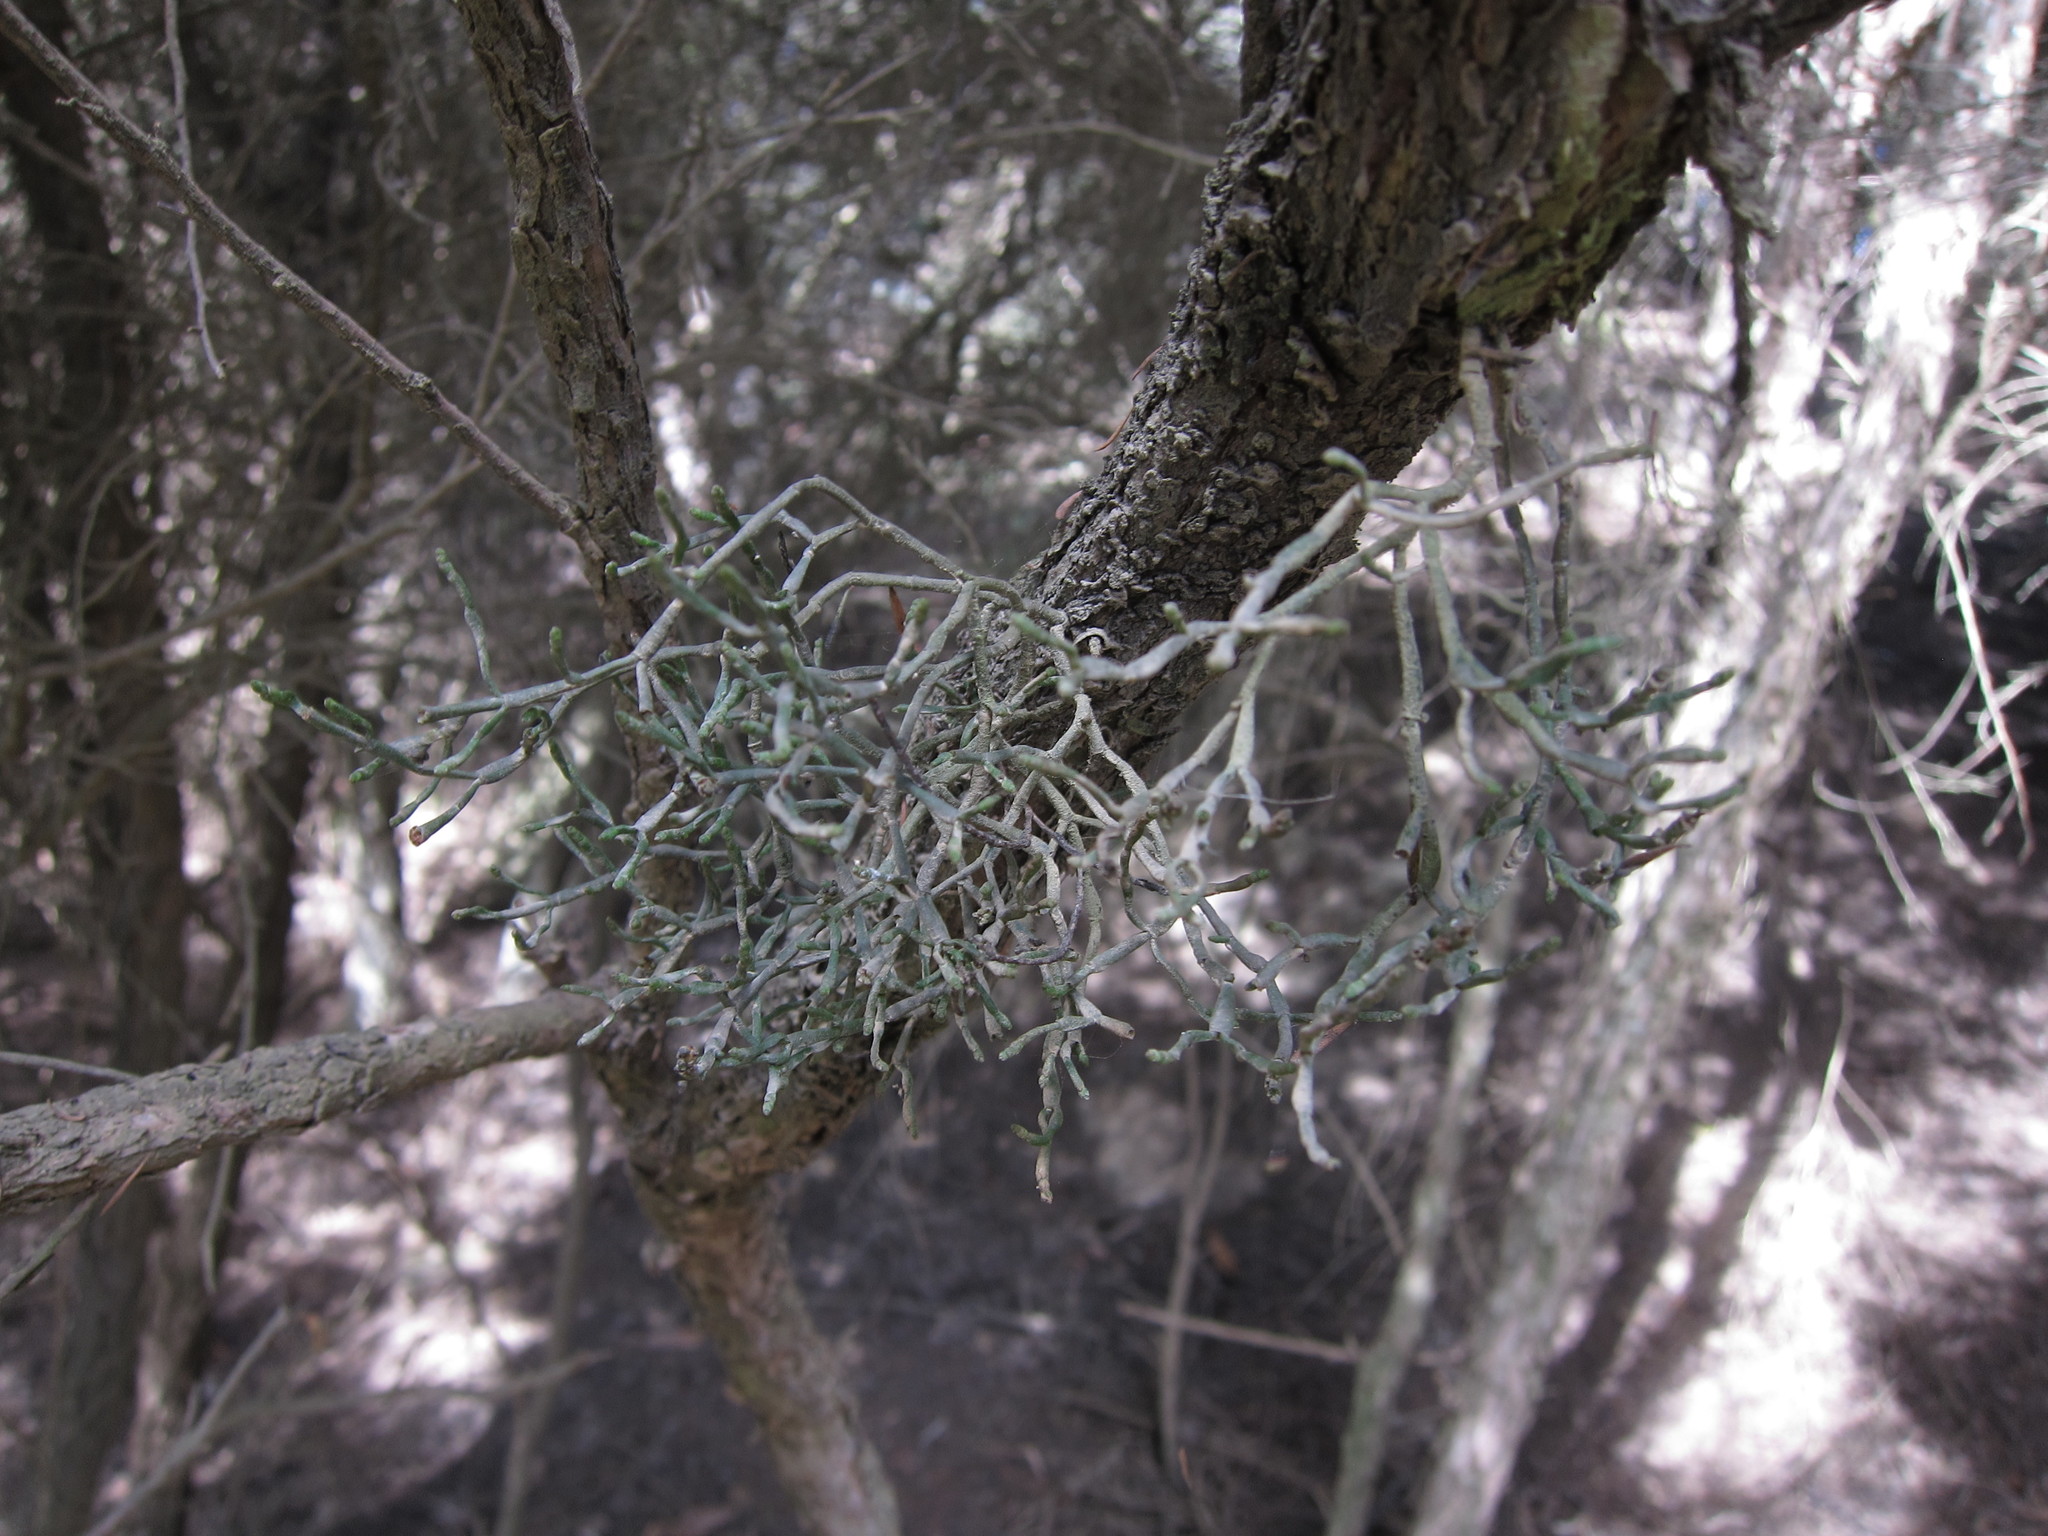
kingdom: Plantae
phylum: Tracheophyta
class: Magnoliopsida
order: Santalales
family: Viscaceae
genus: Korthalsella
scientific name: Korthalsella salicornioides
